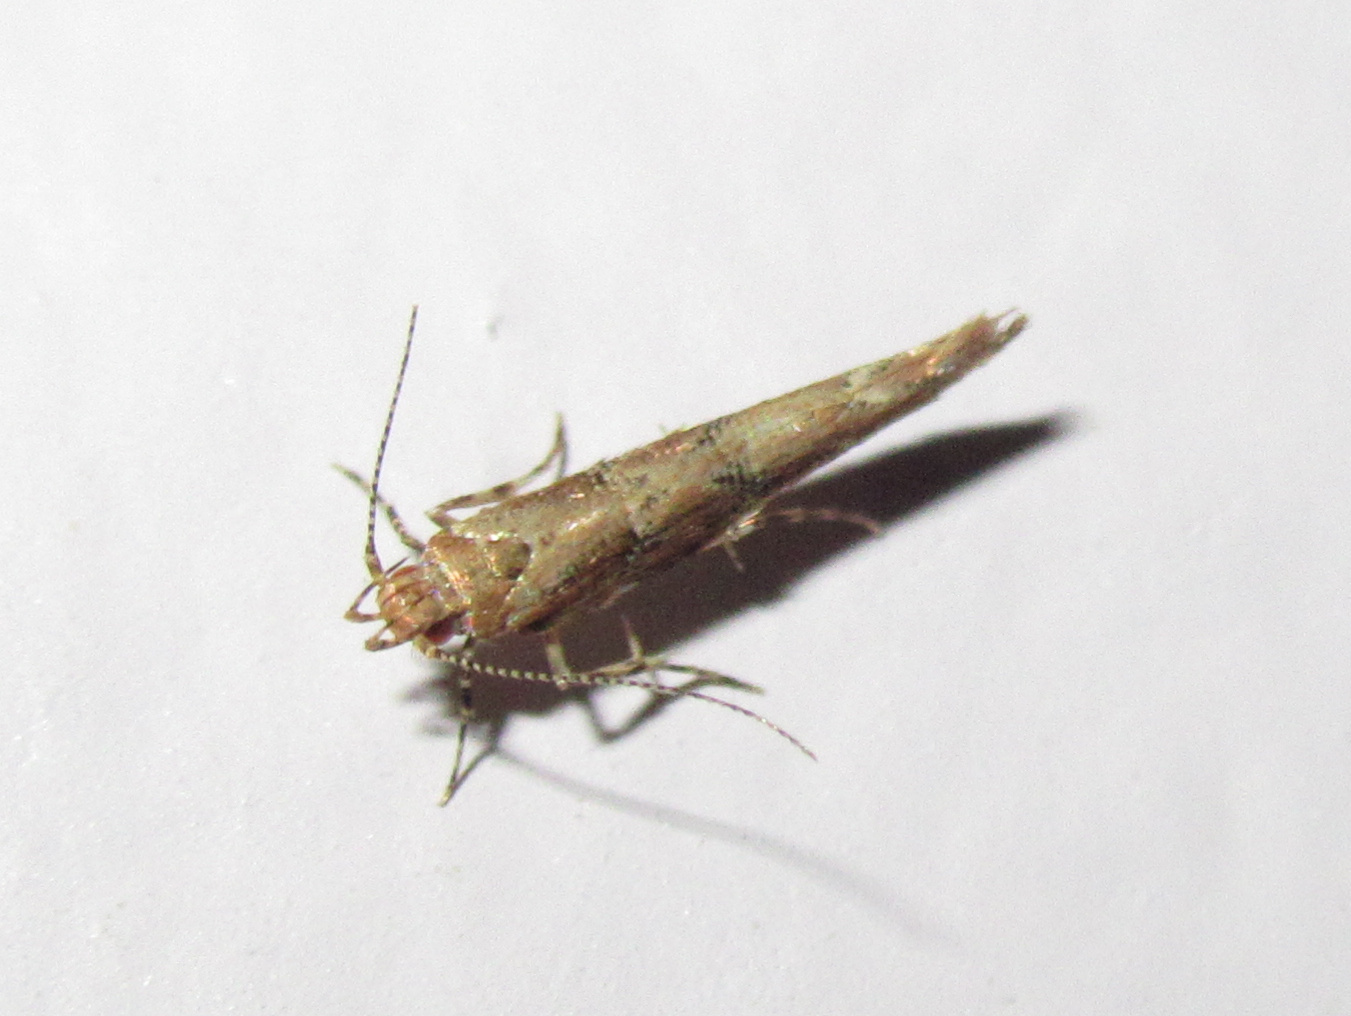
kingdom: Animalia
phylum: Arthropoda
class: Insecta
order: Lepidoptera
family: Cosmopterigidae
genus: Pyroderces
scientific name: Pyroderces aellotricha
